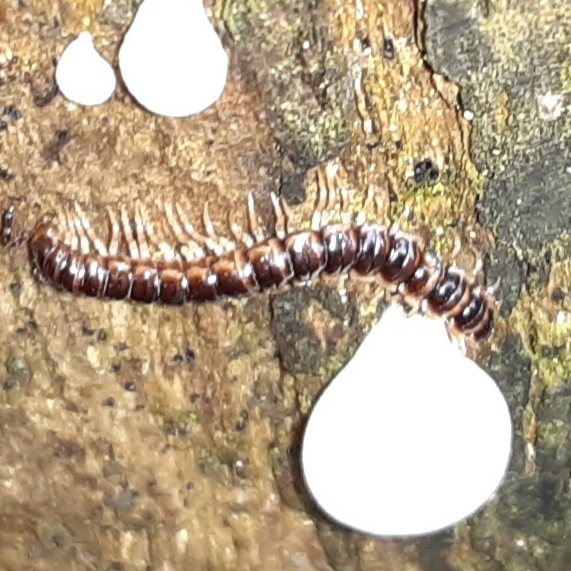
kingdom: Animalia
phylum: Arthropoda
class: Diplopoda
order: Polydesmida
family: Paradoxosomatidae
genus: Oxidus
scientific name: Oxidus gracilis
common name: Greenhouse millipede
